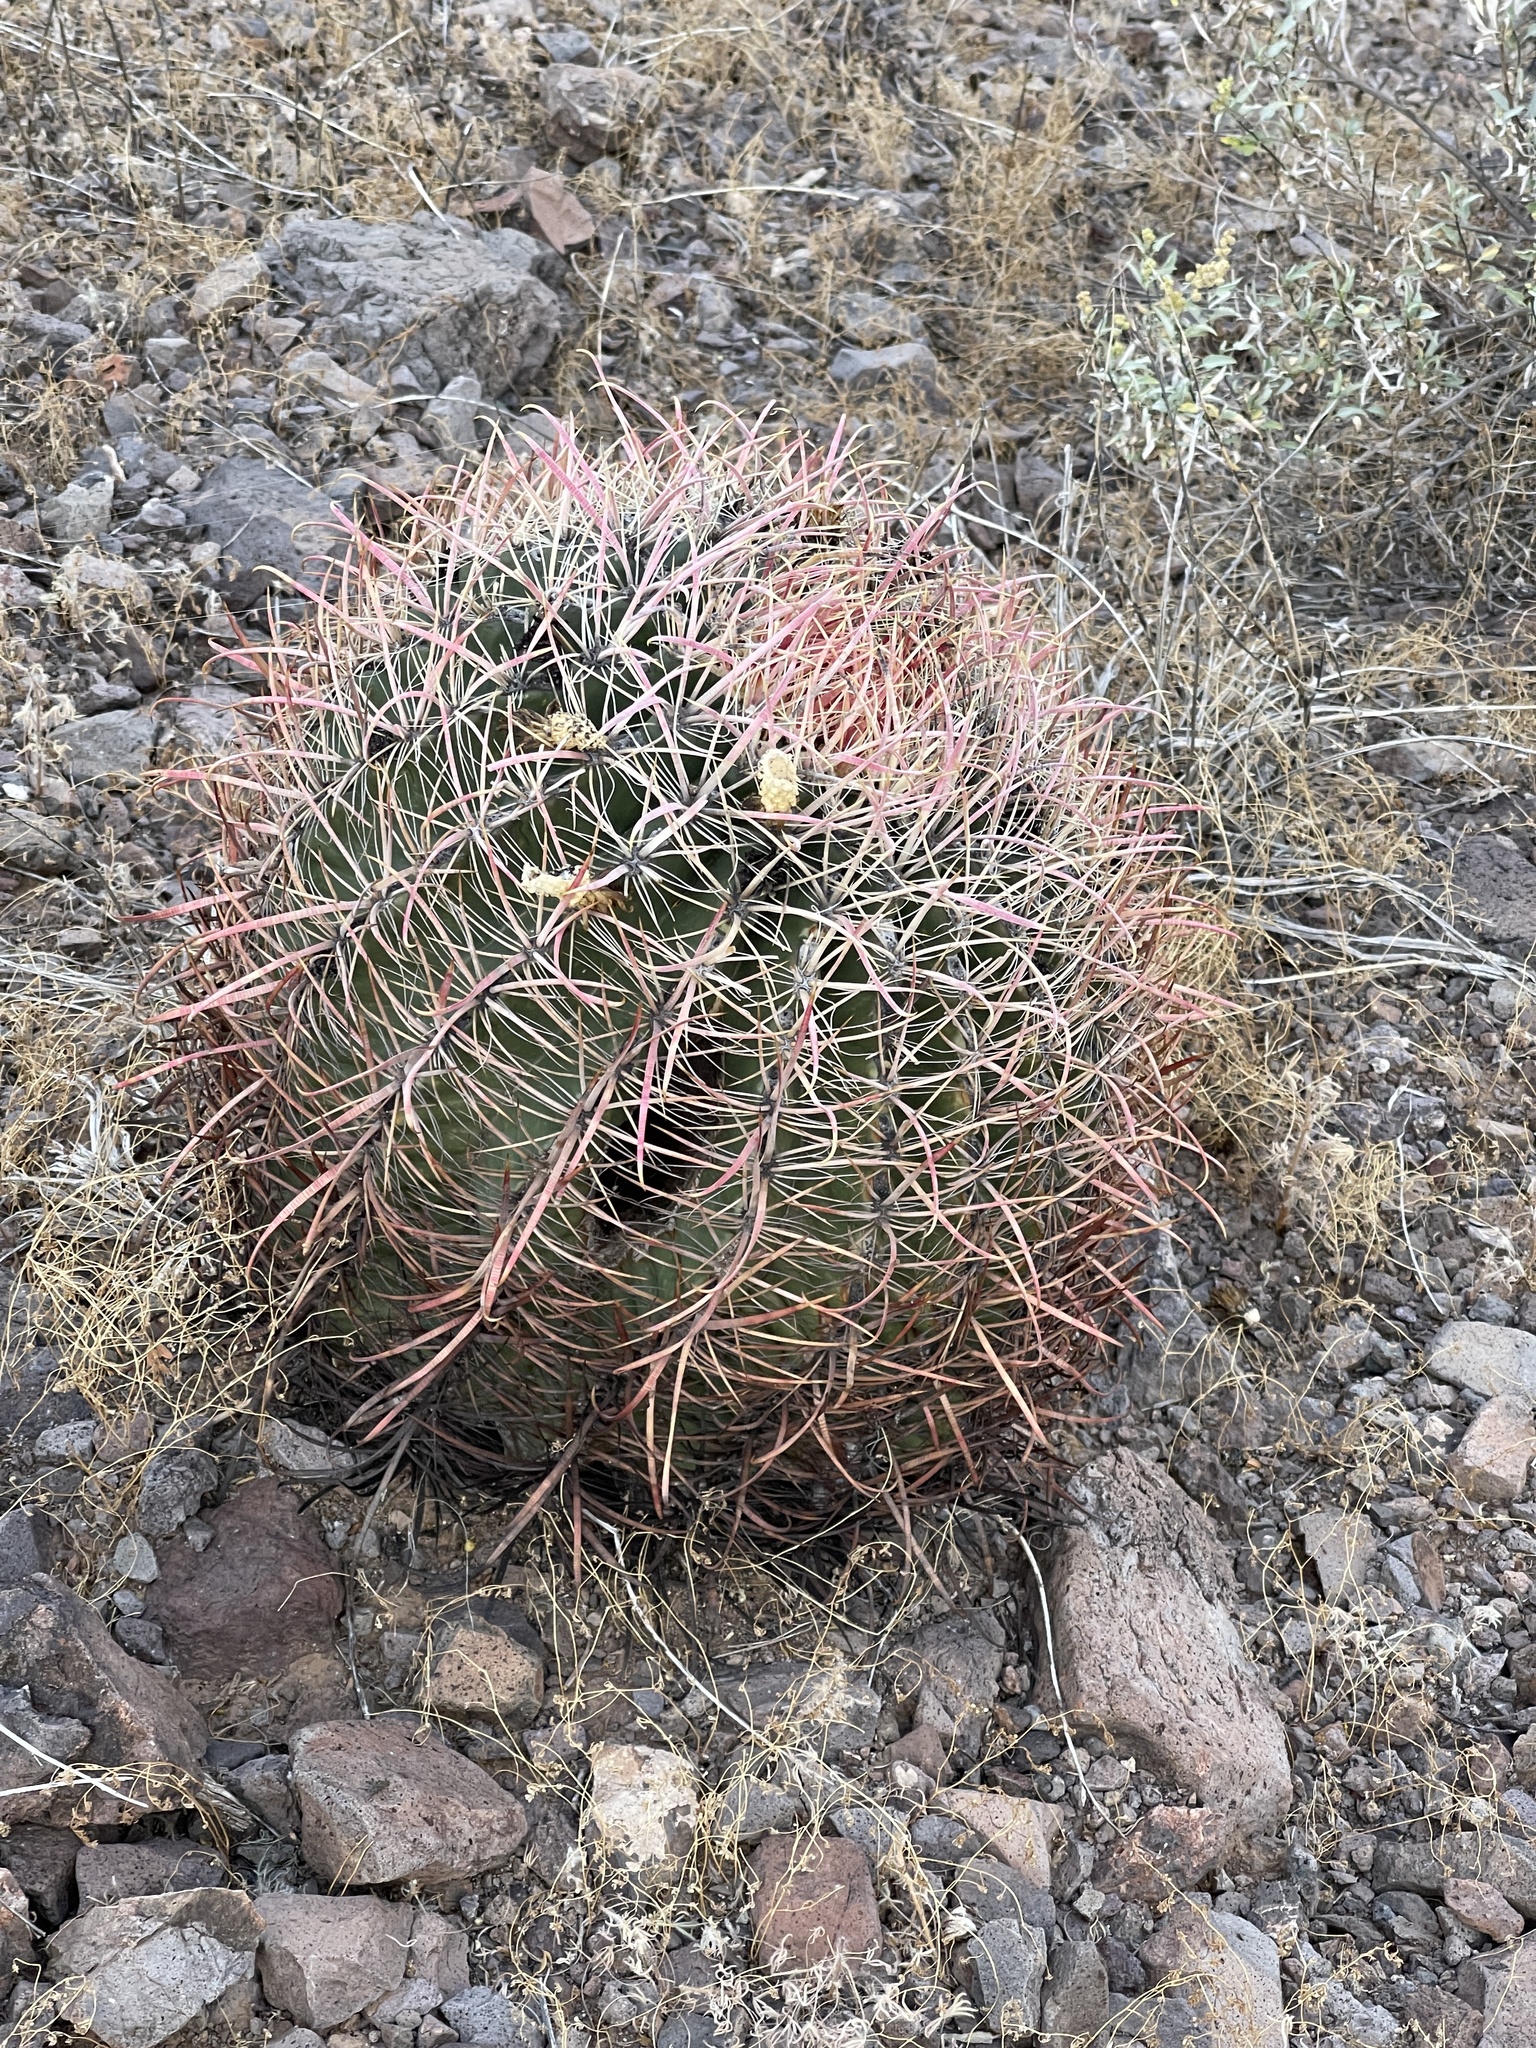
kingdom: Plantae
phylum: Tracheophyta
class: Magnoliopsida
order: Caryophyllales
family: Cactaceae
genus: Ferocactus
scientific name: Ferocactus cylindraceus
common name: California barrel cactus
